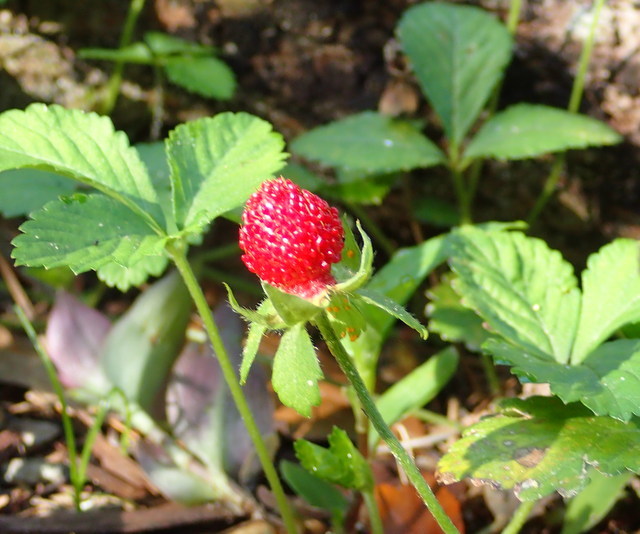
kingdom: Plantae
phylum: Tracheophyta
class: Magnoliopsida
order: Rosales
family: Rosaceae
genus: Potentilla
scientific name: Potentilla indica
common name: Yellow-flowered strawberry
